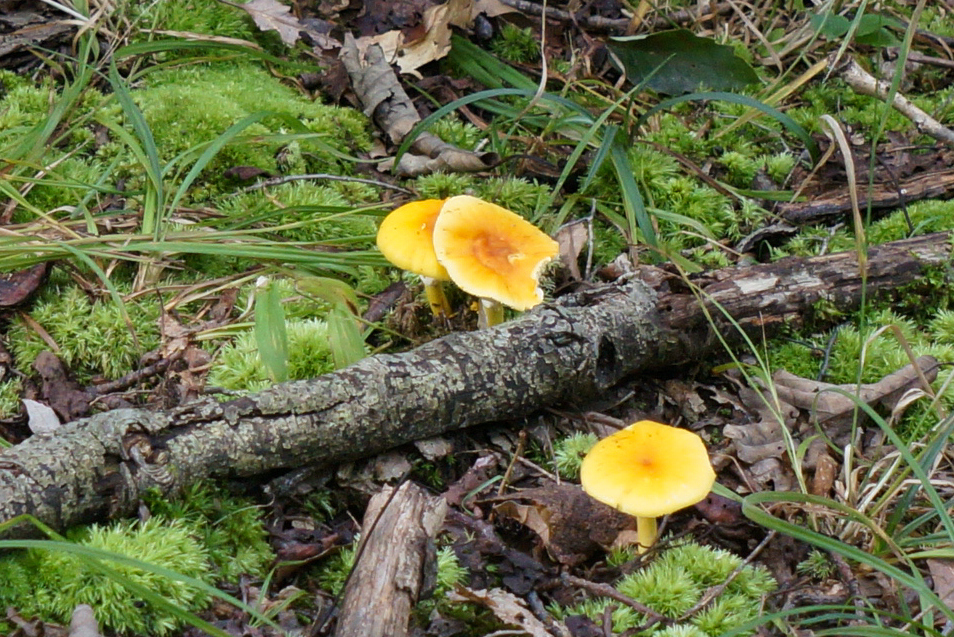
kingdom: Fungi
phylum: Basidiomycota
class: Agaricomycetes
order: Agaricales
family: Amanitaceae
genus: Amanita
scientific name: Amanita flavoconia
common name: Yellow patches
